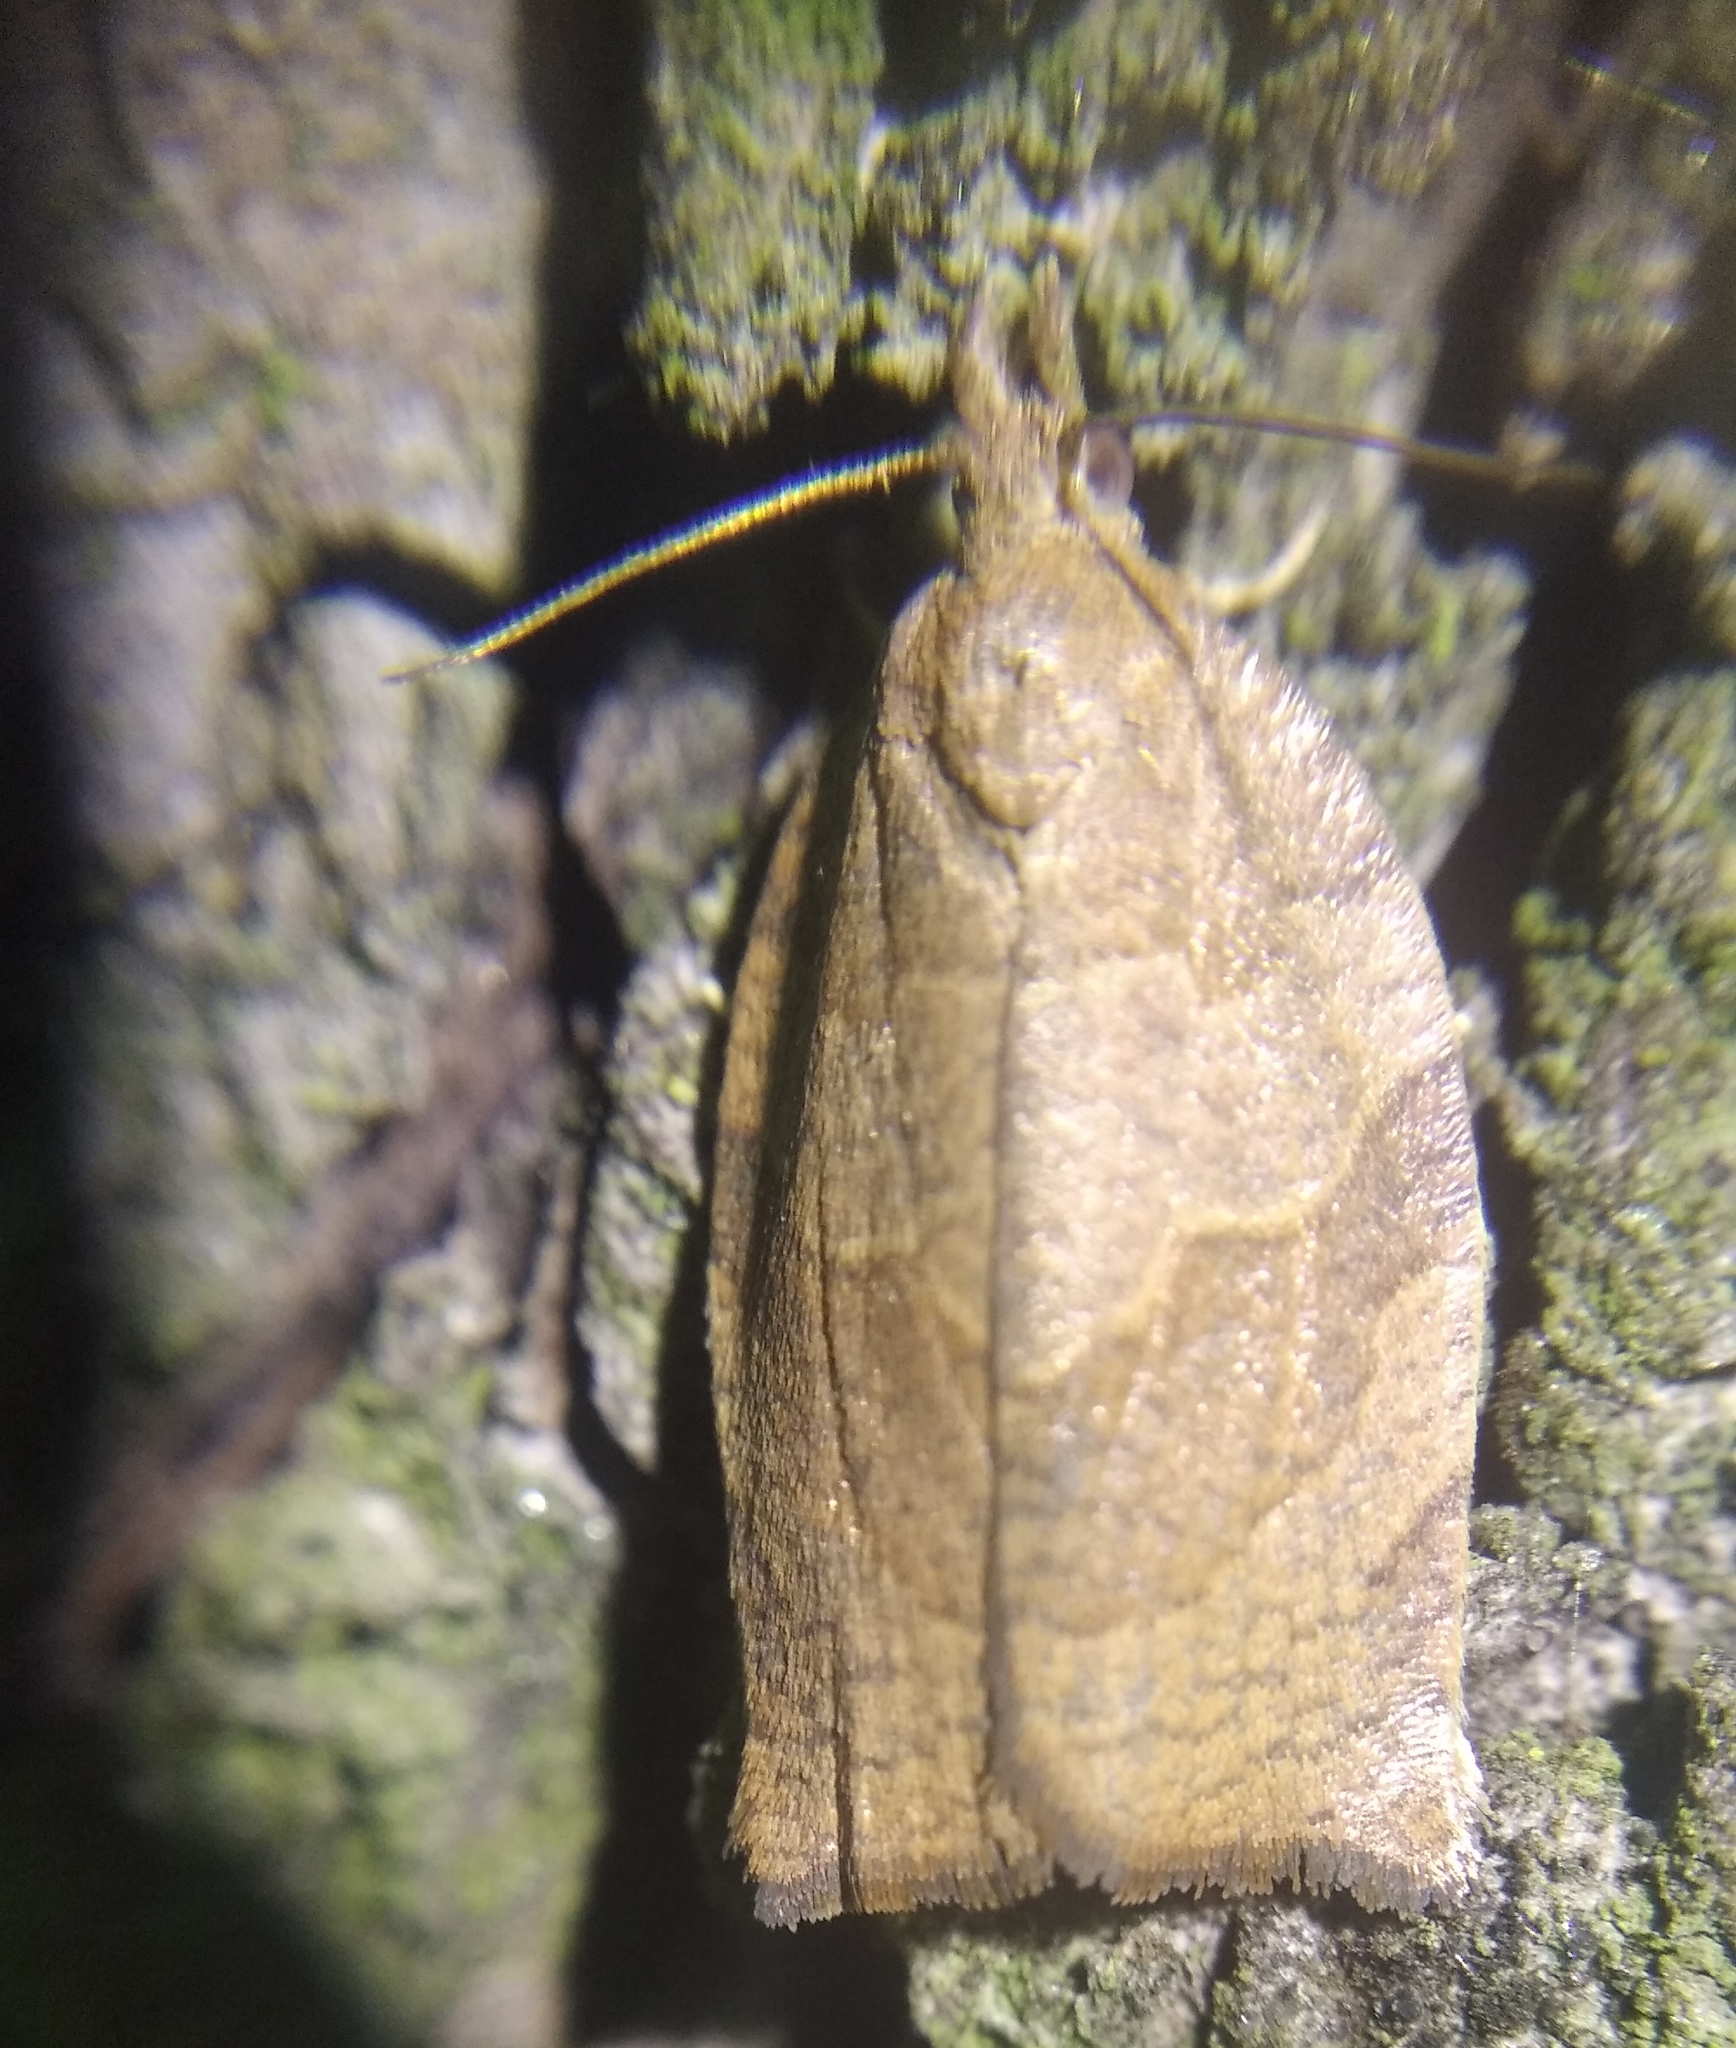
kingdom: Animalia
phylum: Arthropoda
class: Insecta
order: Lepidoptera
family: Tortricidae
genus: Pandemis
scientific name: Pandemis heparana
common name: Dark fruit-tree tortrix
